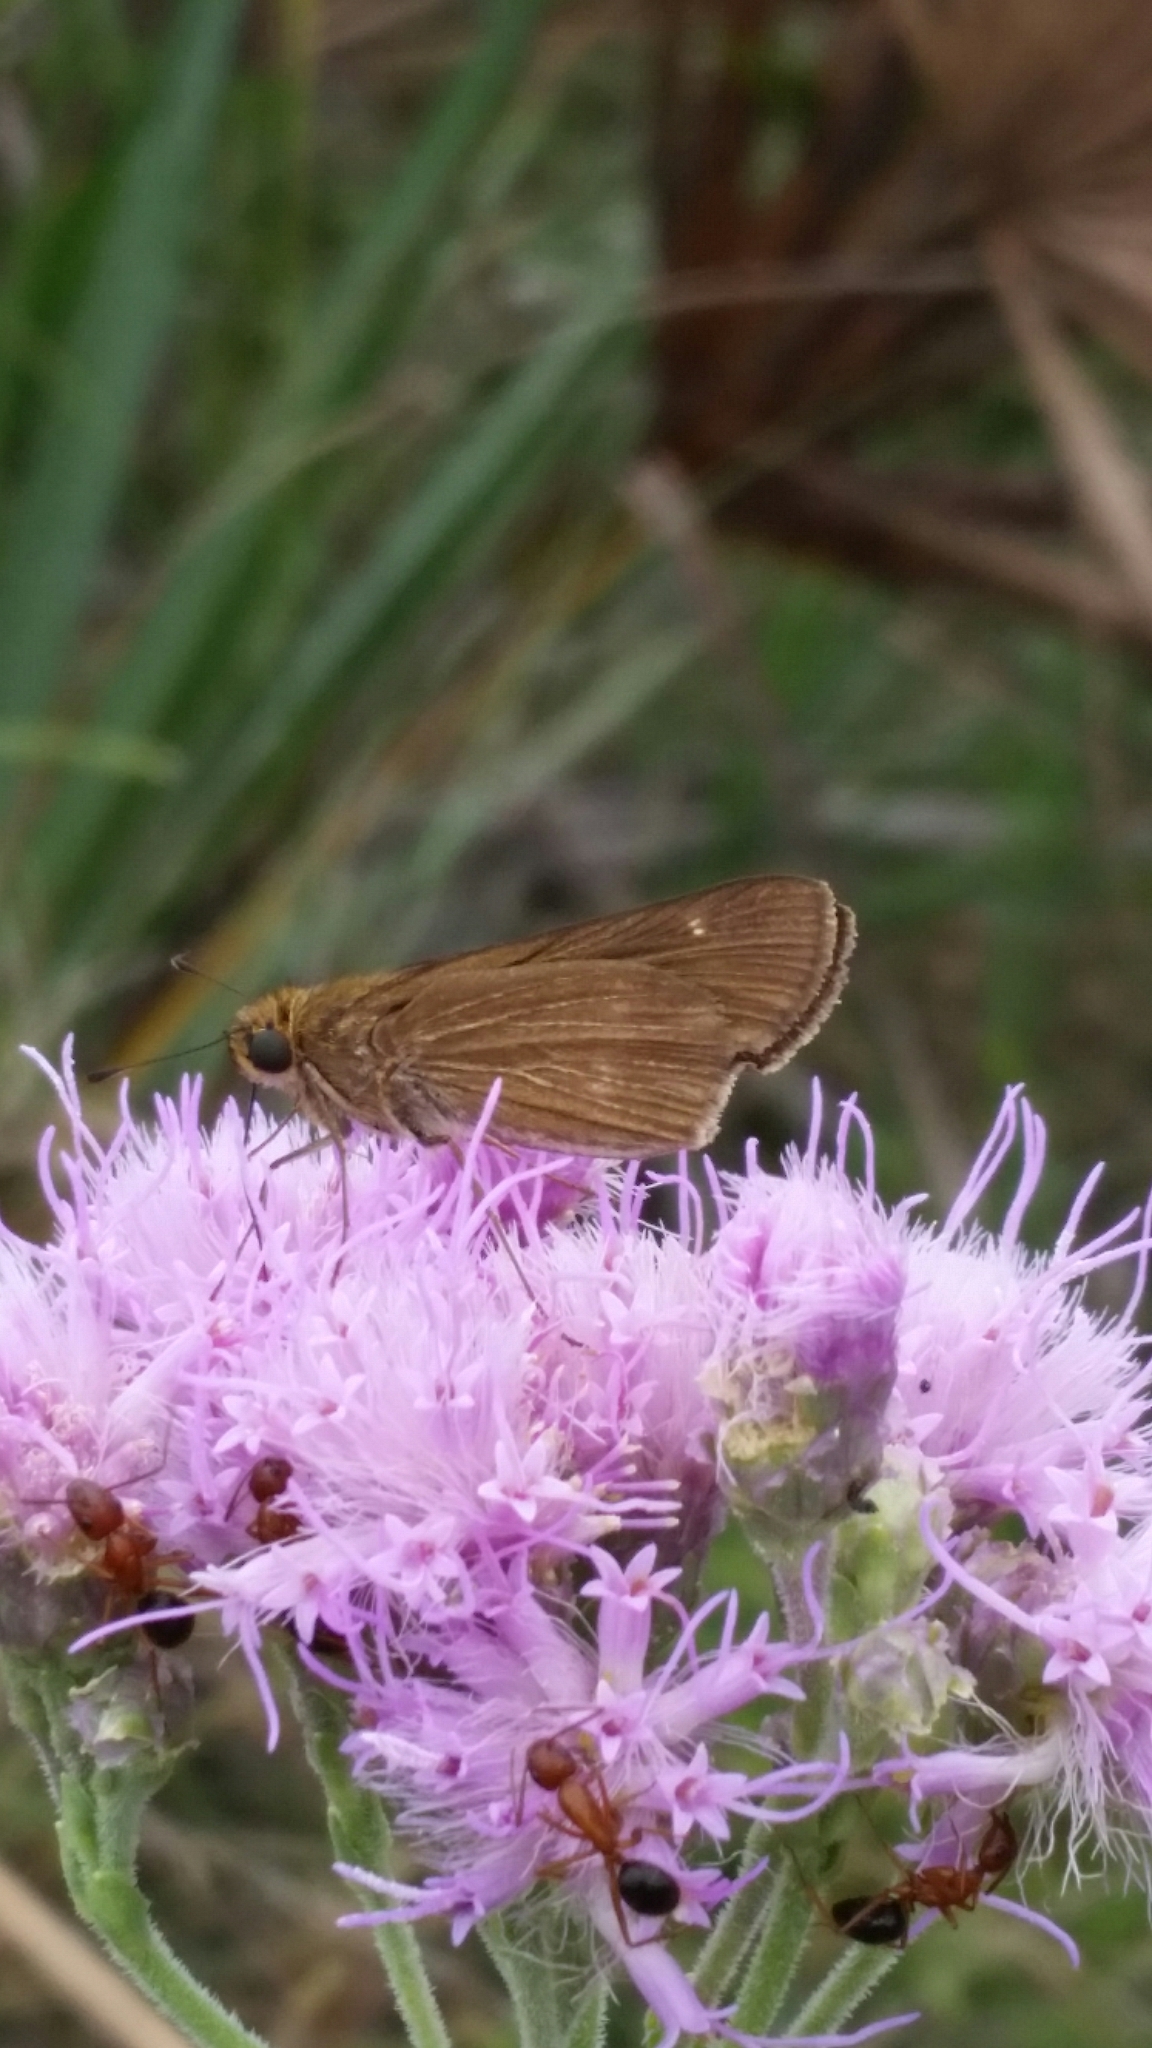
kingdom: Animalia
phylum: Arthropoda
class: Insecta
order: Lepidoptera
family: Hesperiidae
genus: Panoquina
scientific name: Panoquina ocola
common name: Ocola skipper
